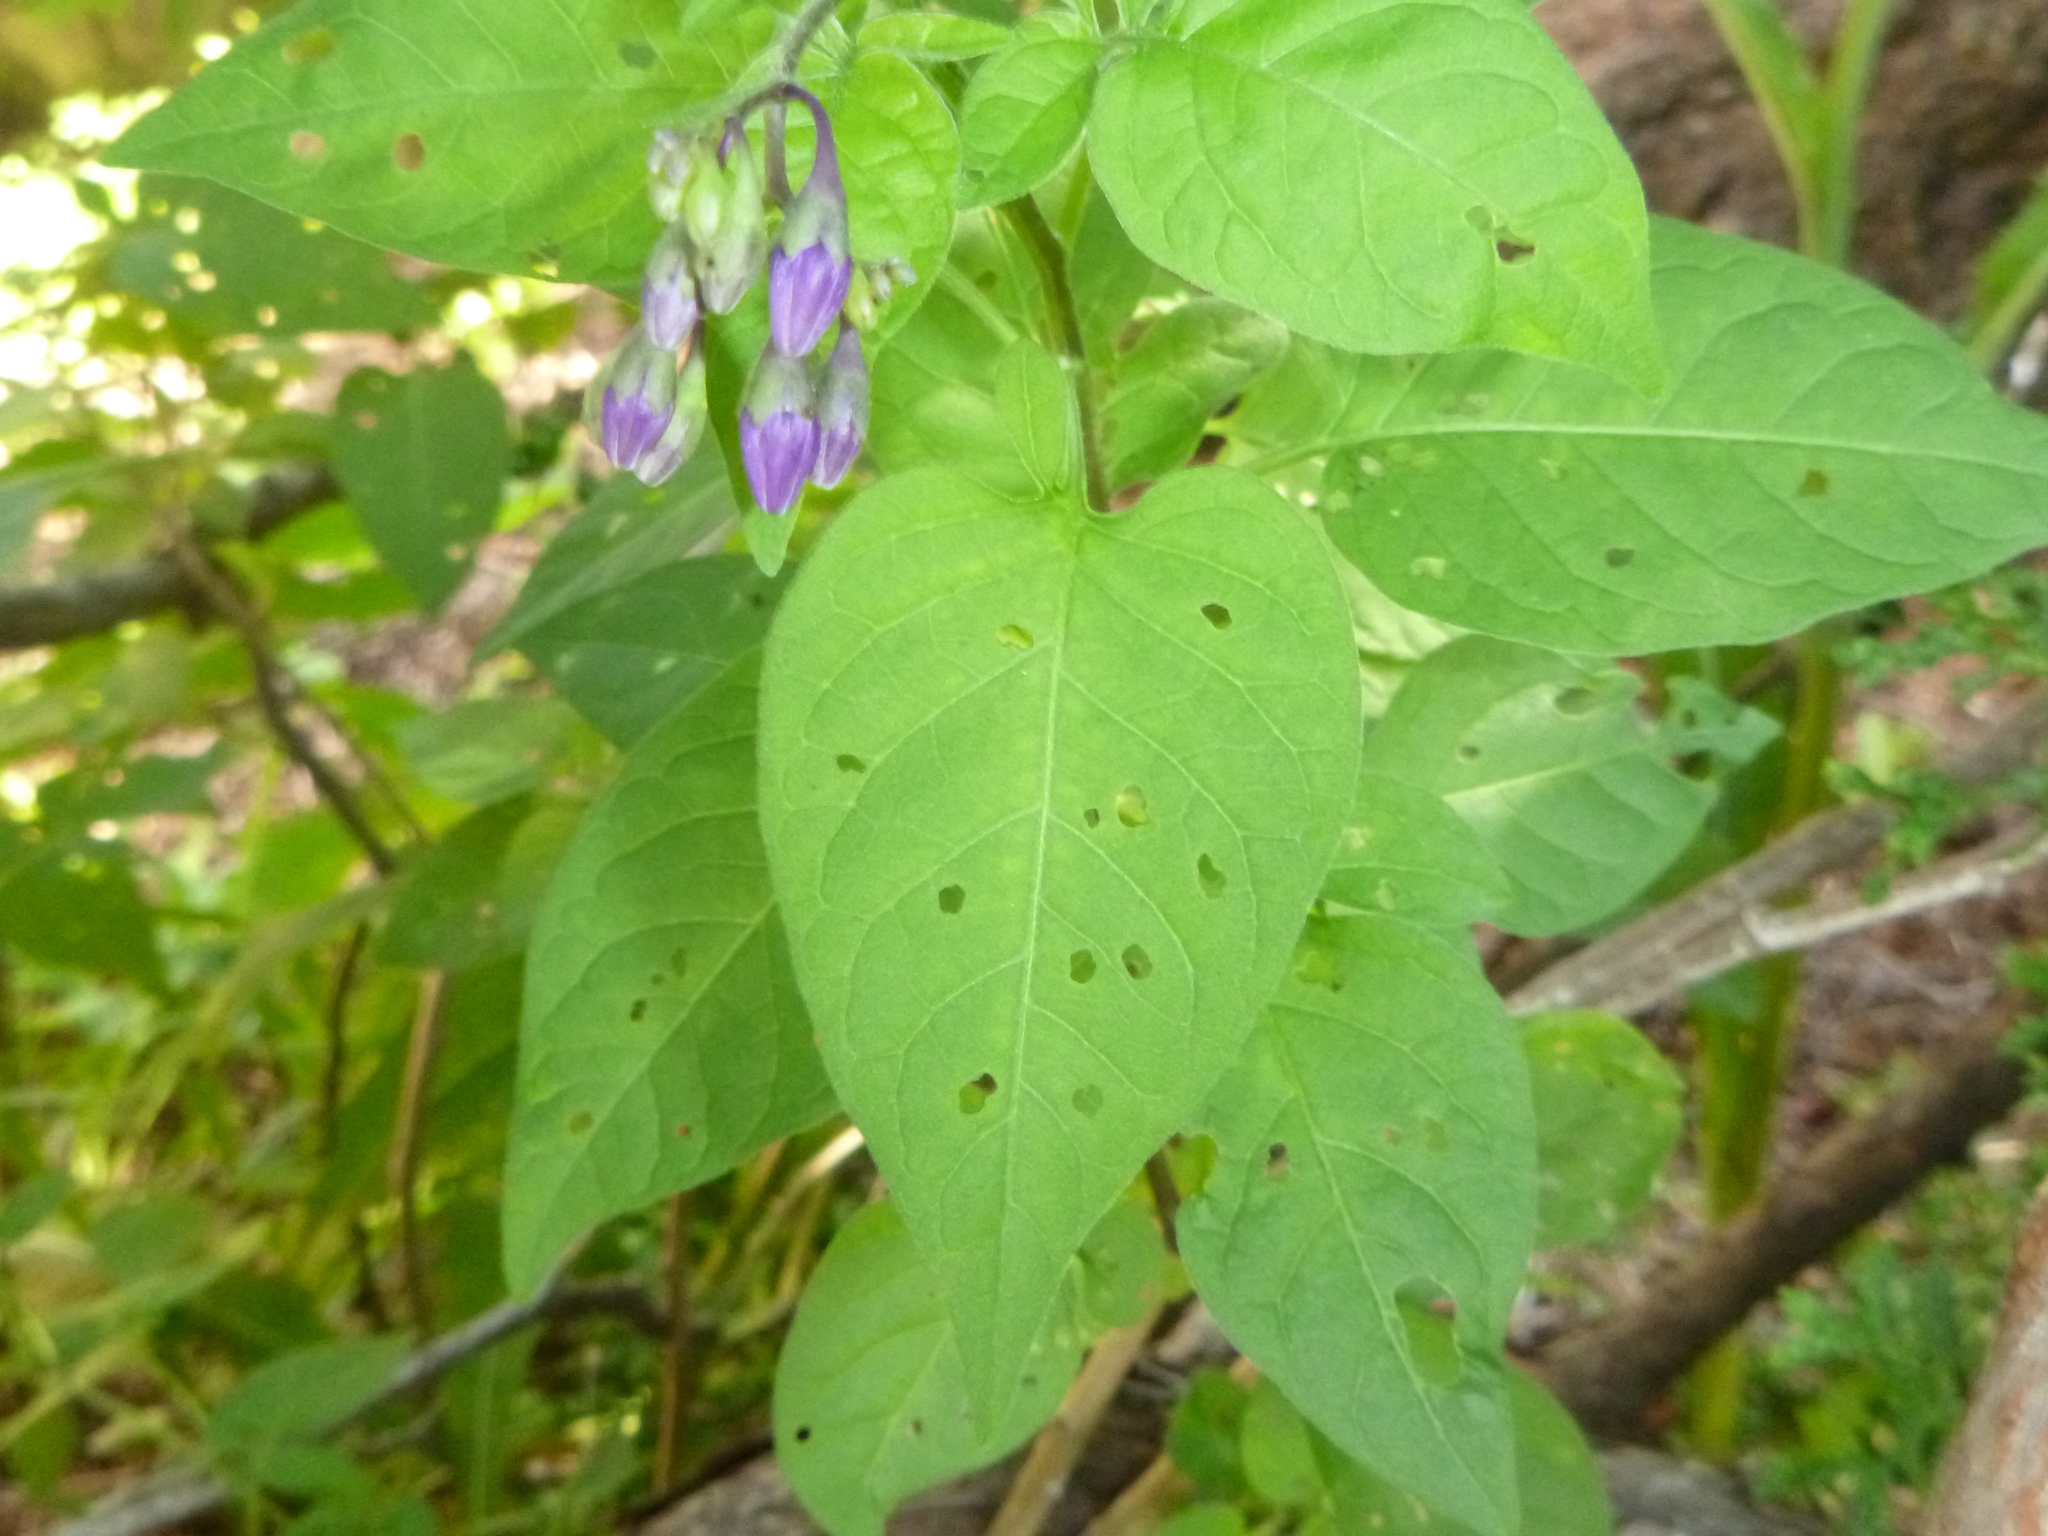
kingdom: Plantae
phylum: Tracheophyta
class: Magnoliopsida
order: Solanales
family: Solanaceae
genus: Solanum
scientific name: Solanum dulcamara
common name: Climbing nightshade
